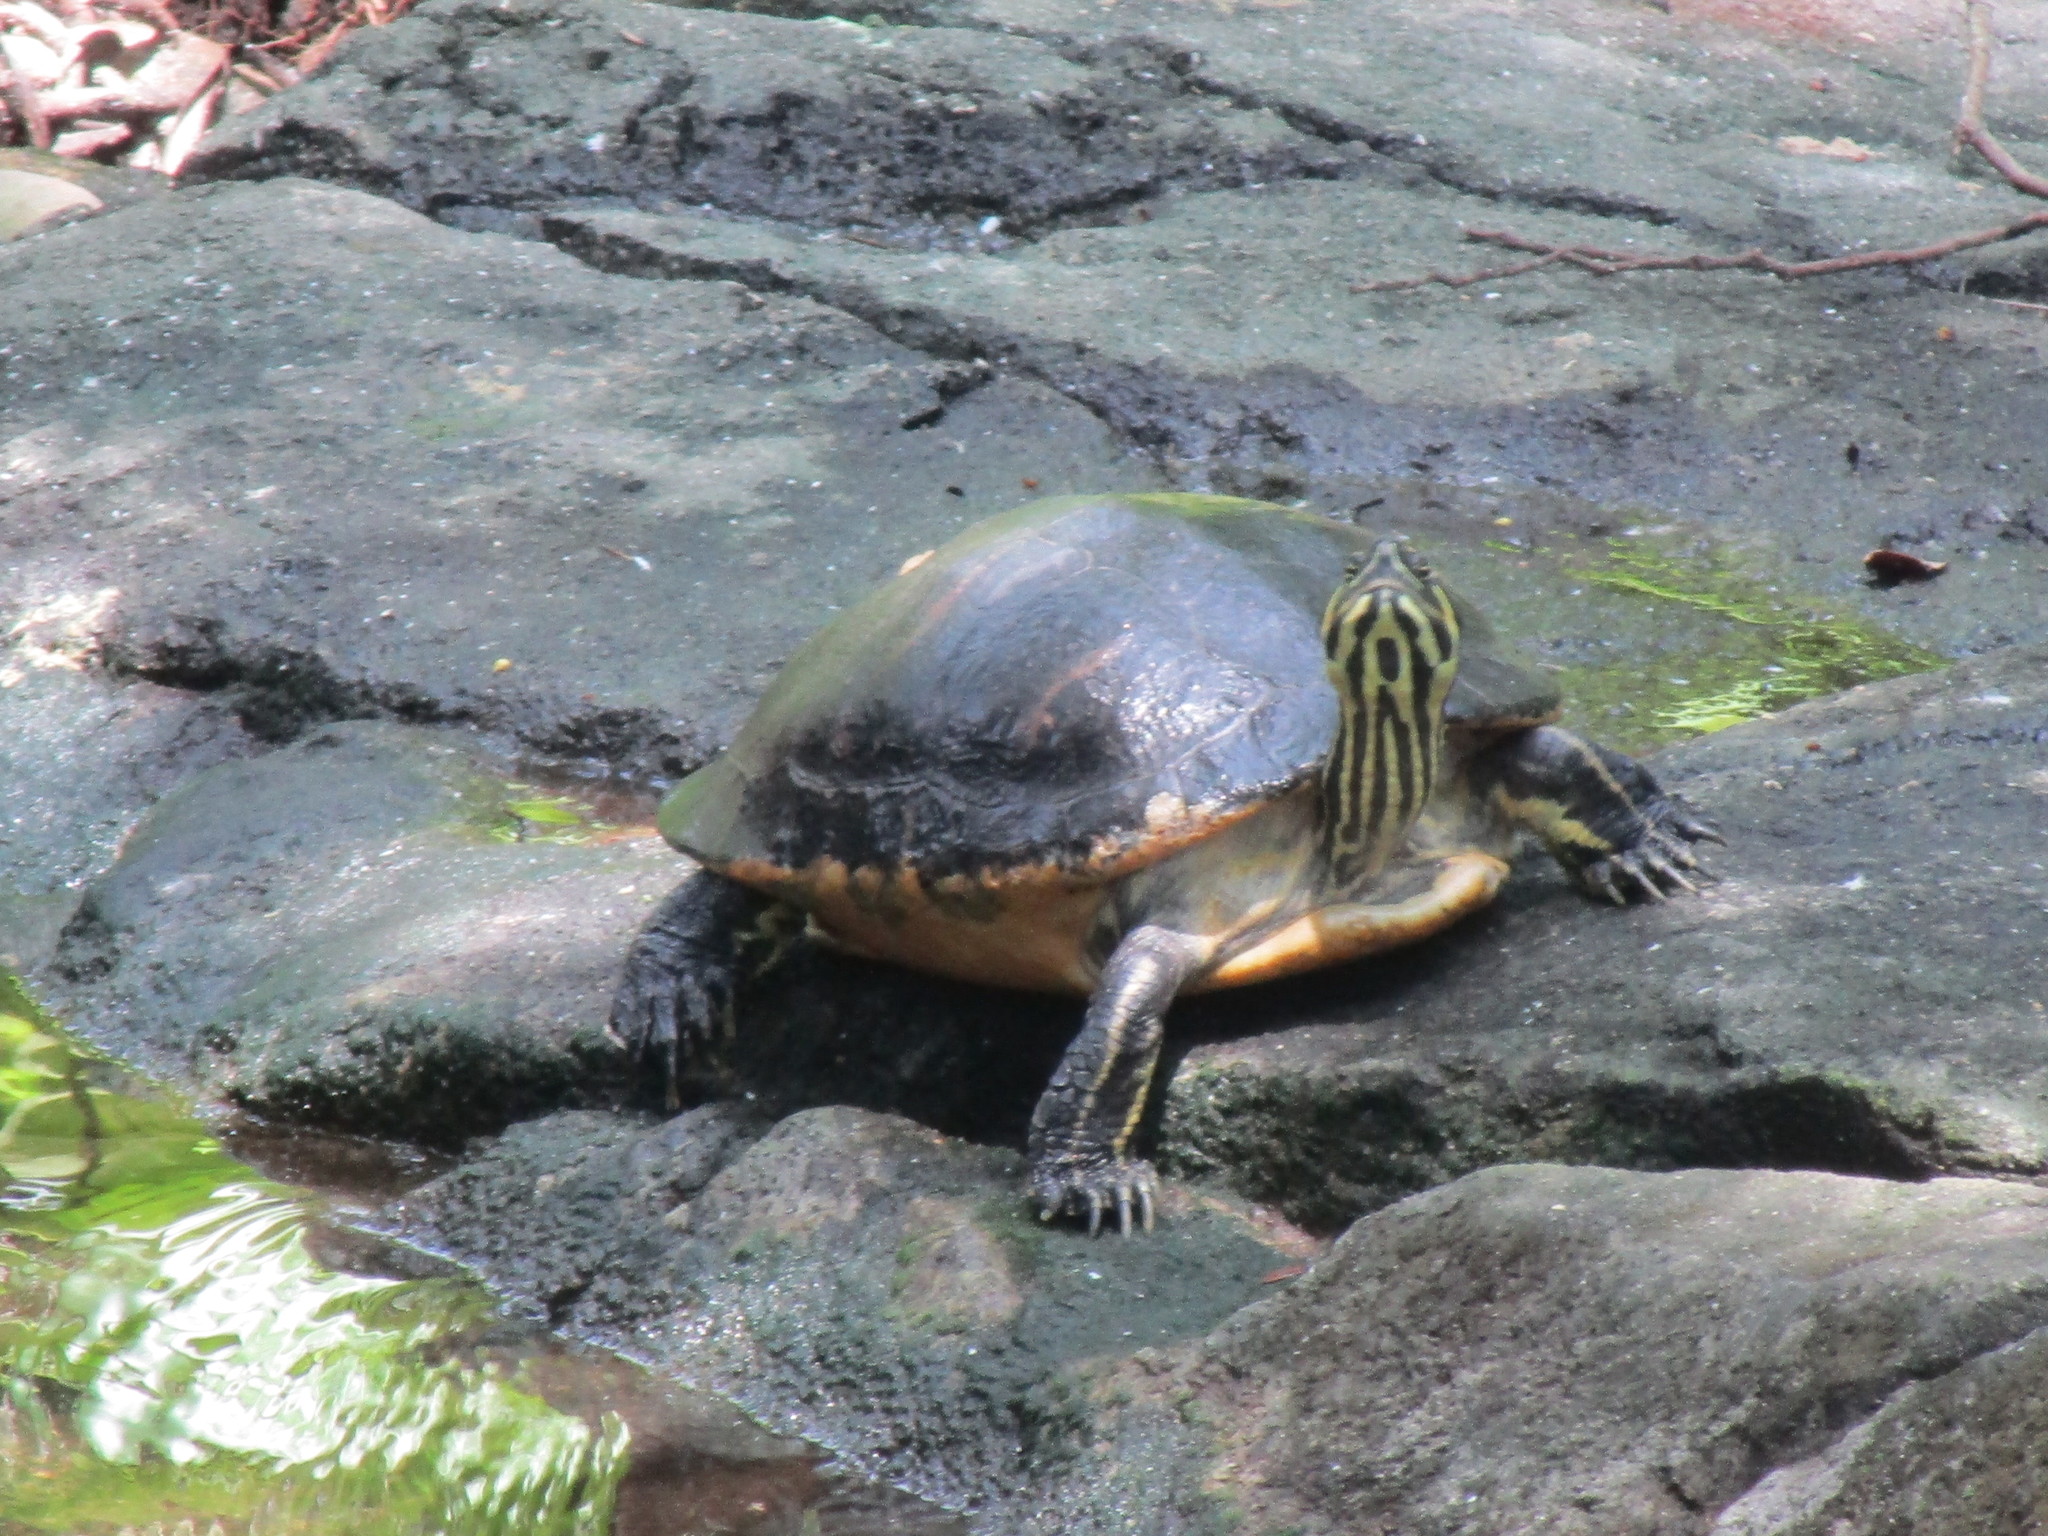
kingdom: Animalia
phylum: Chordata
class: Testudines
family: Emydidae
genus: Pseudemys
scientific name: Pseudemys peninsularis
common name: Peninsula cooter
